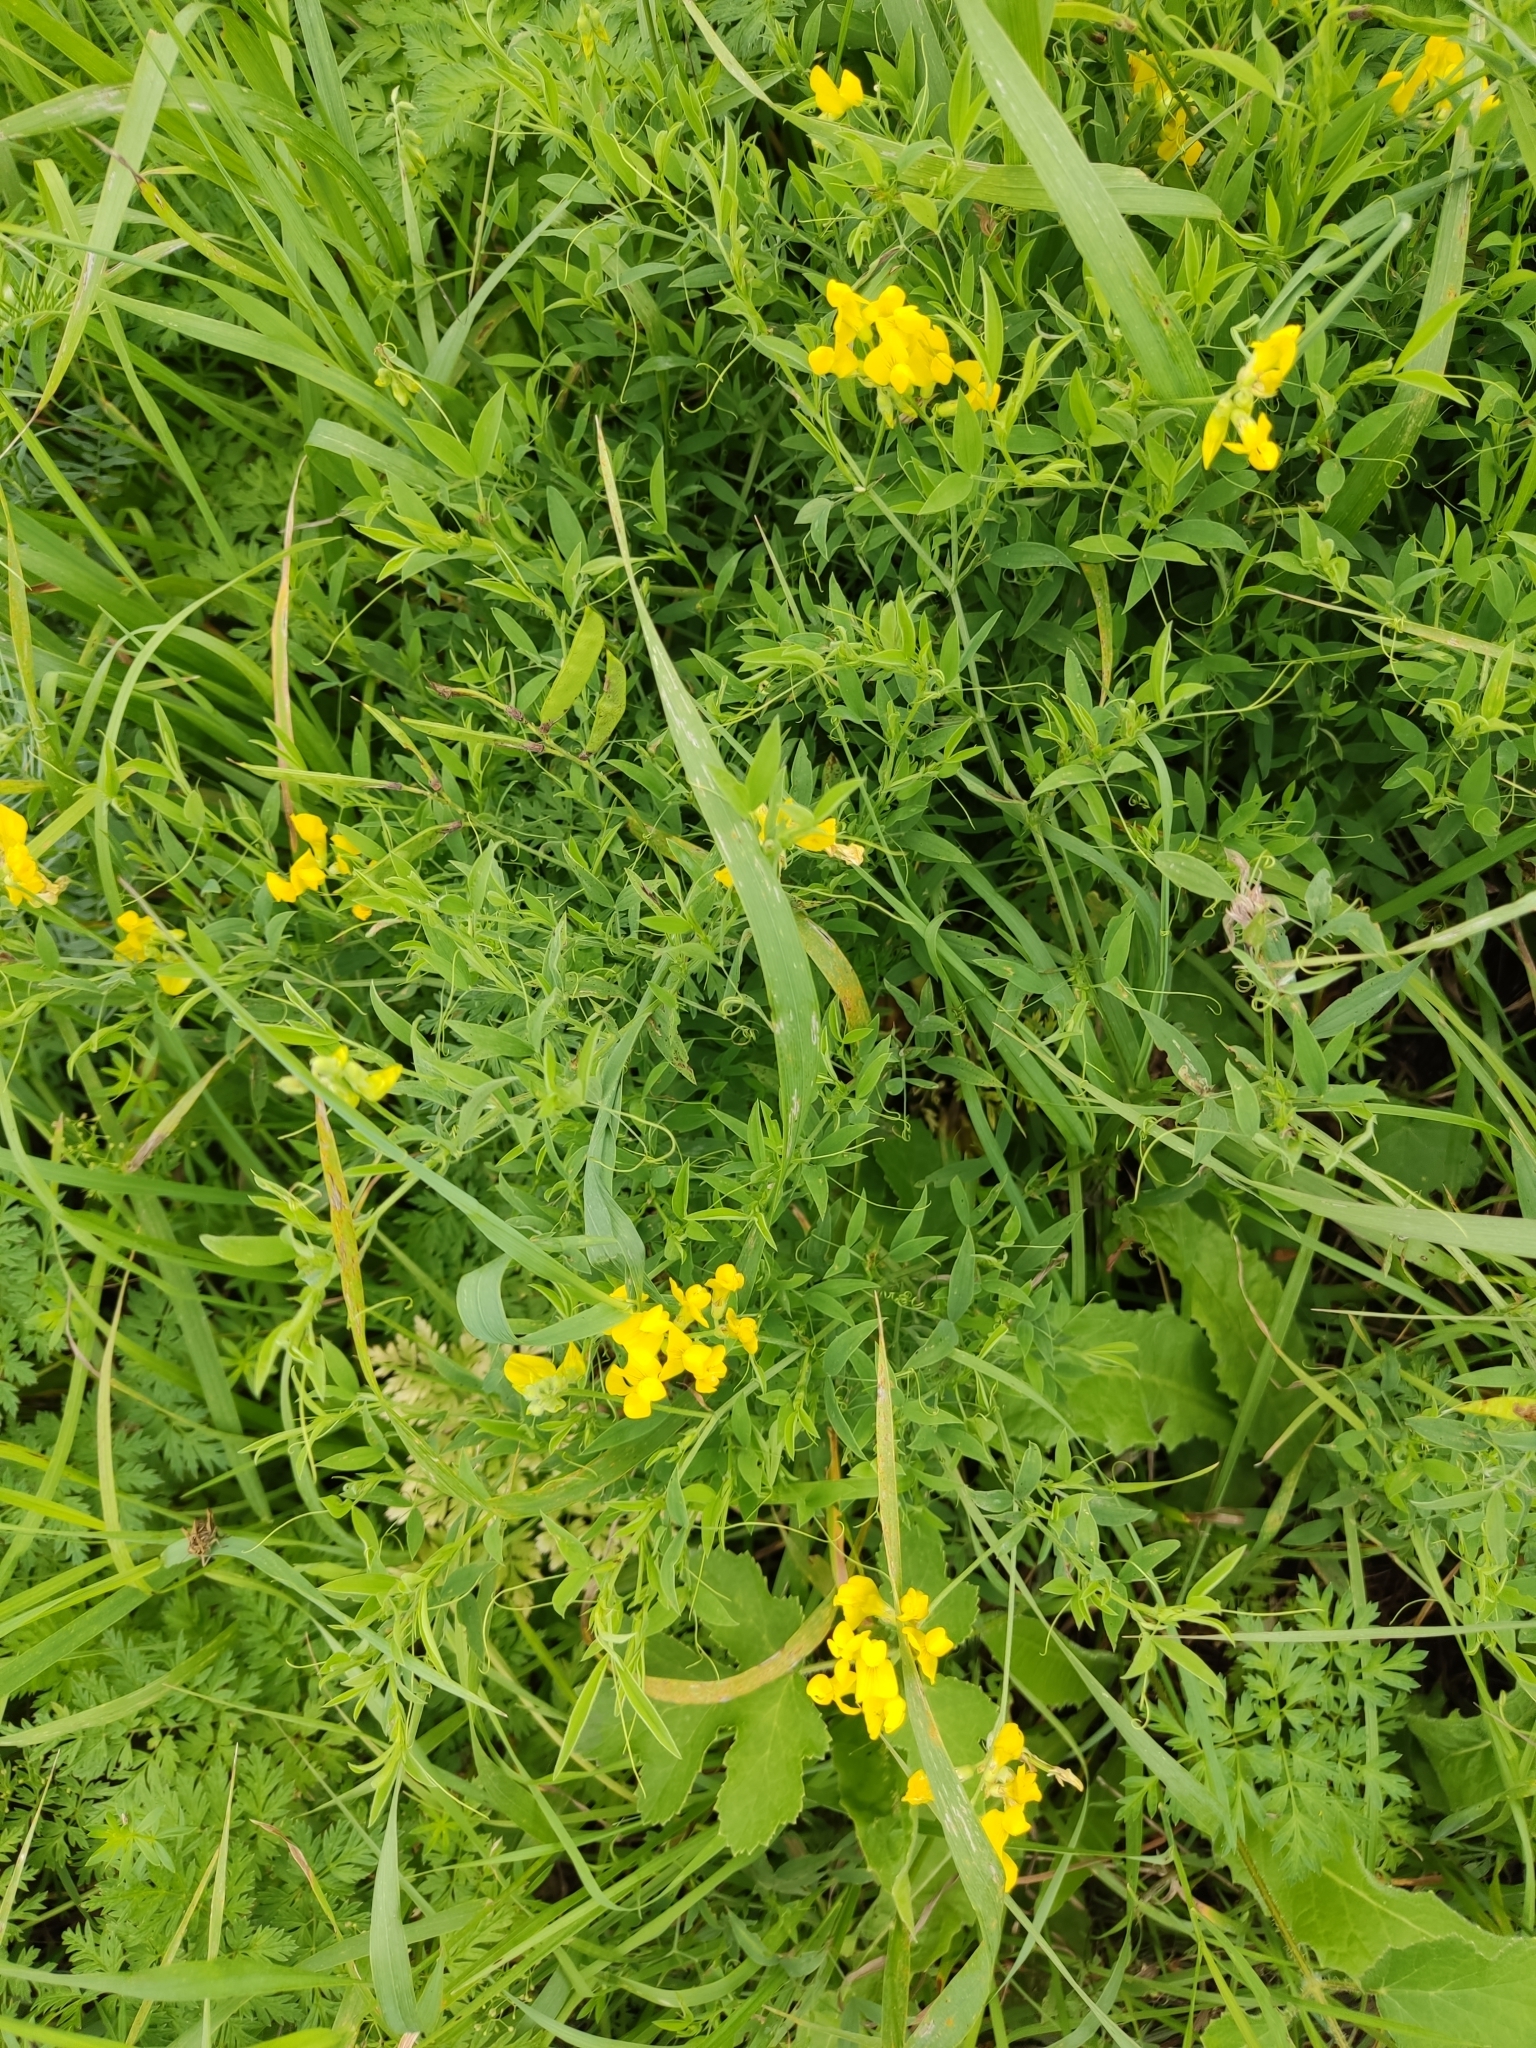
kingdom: Plantae
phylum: Tracheophyta
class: Magnoliopsida
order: Fabales
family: Fabaceae
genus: Lathyrus
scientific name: Lathyrus pratensis
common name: Meadow vetchling
